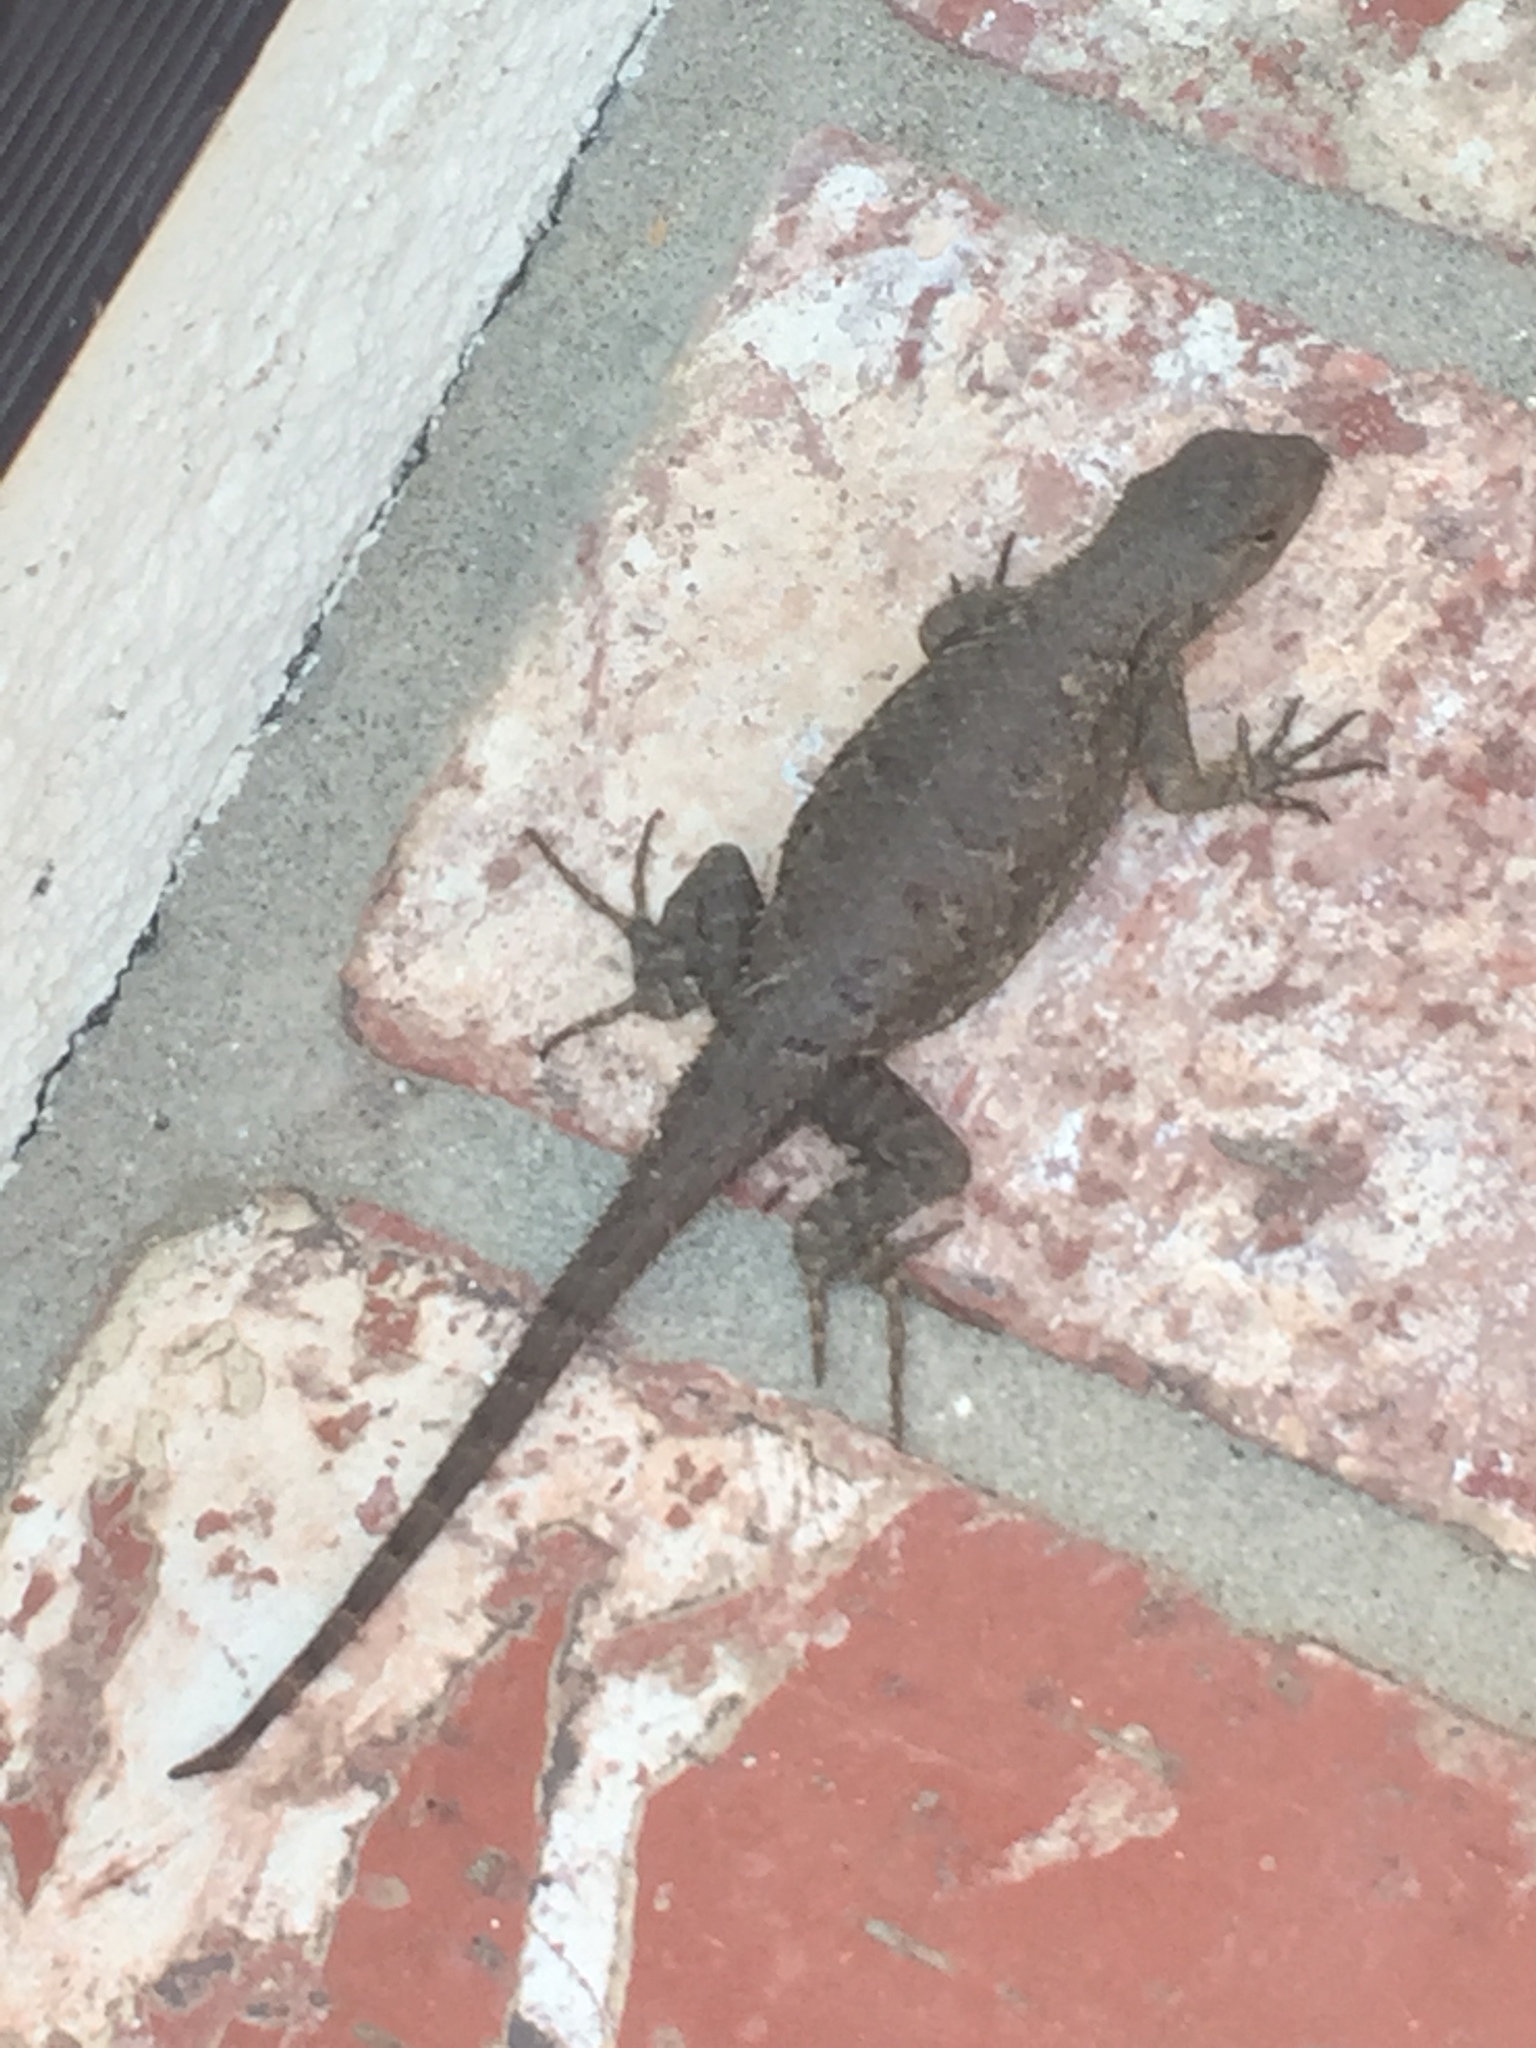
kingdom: Animalia
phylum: Chordata
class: Squamata
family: Phrynosomatidae
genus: Sceloporus
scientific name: Sceloporus occidentalis
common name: Western fence lizard
